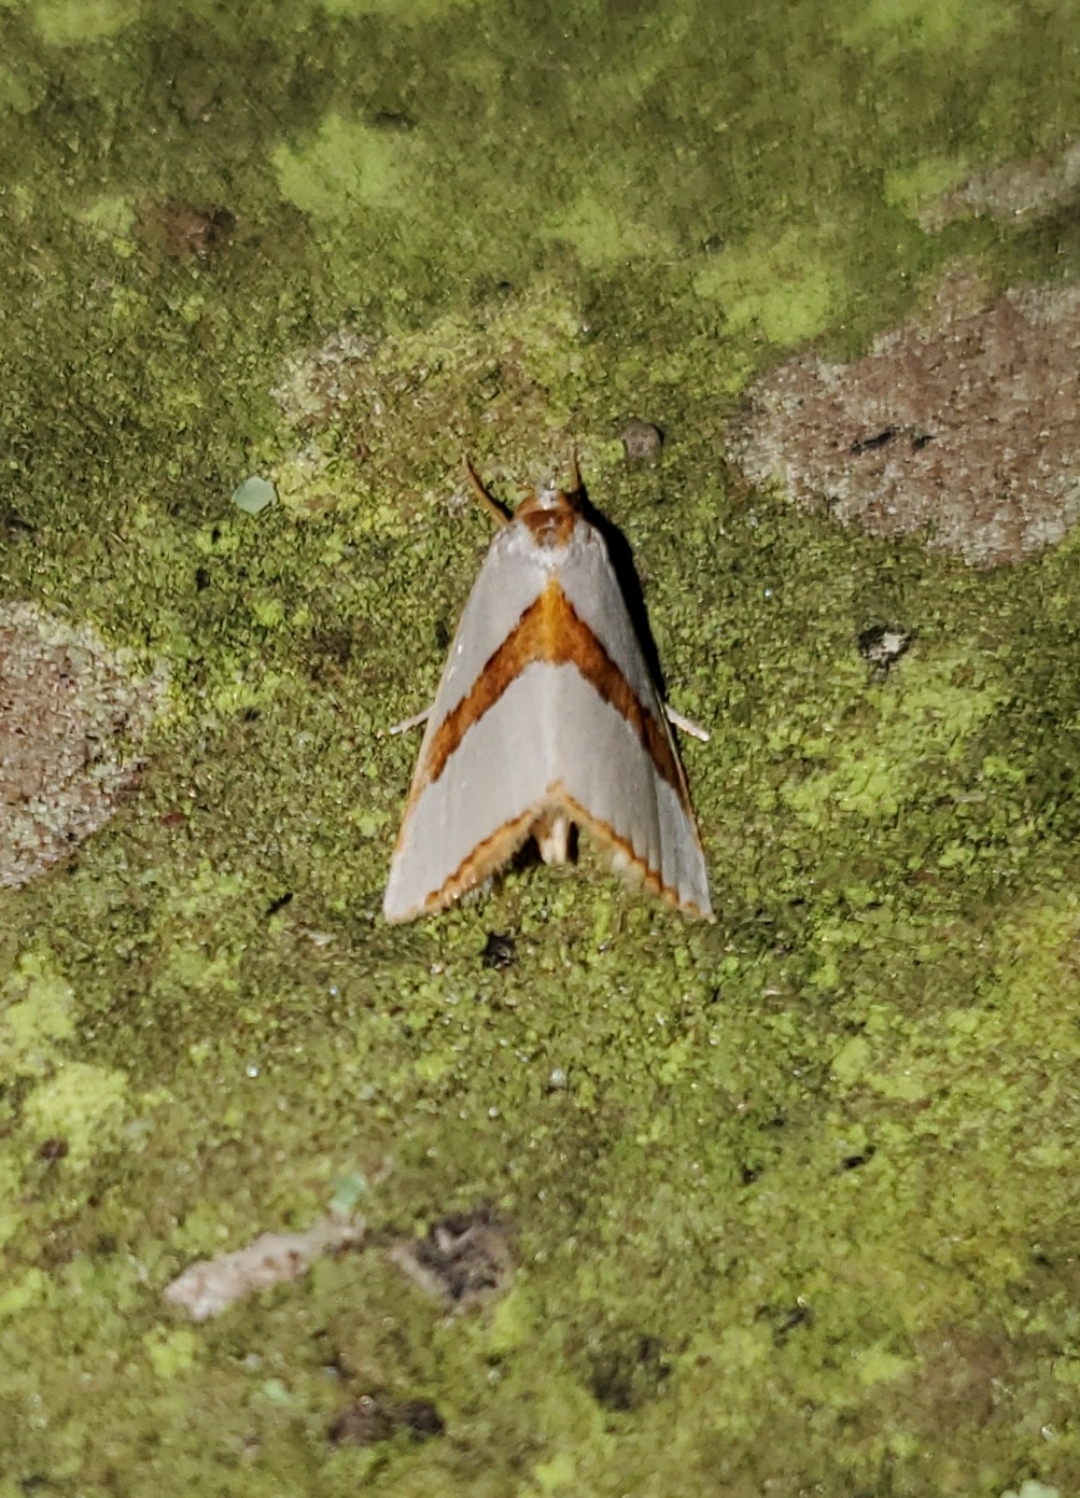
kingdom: Animalia
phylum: Arthropoda
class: Insecta
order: Lepidoptera
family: Crambidae
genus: Vaxi
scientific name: Vaxi critica
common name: Straight-lined vaxi moth
